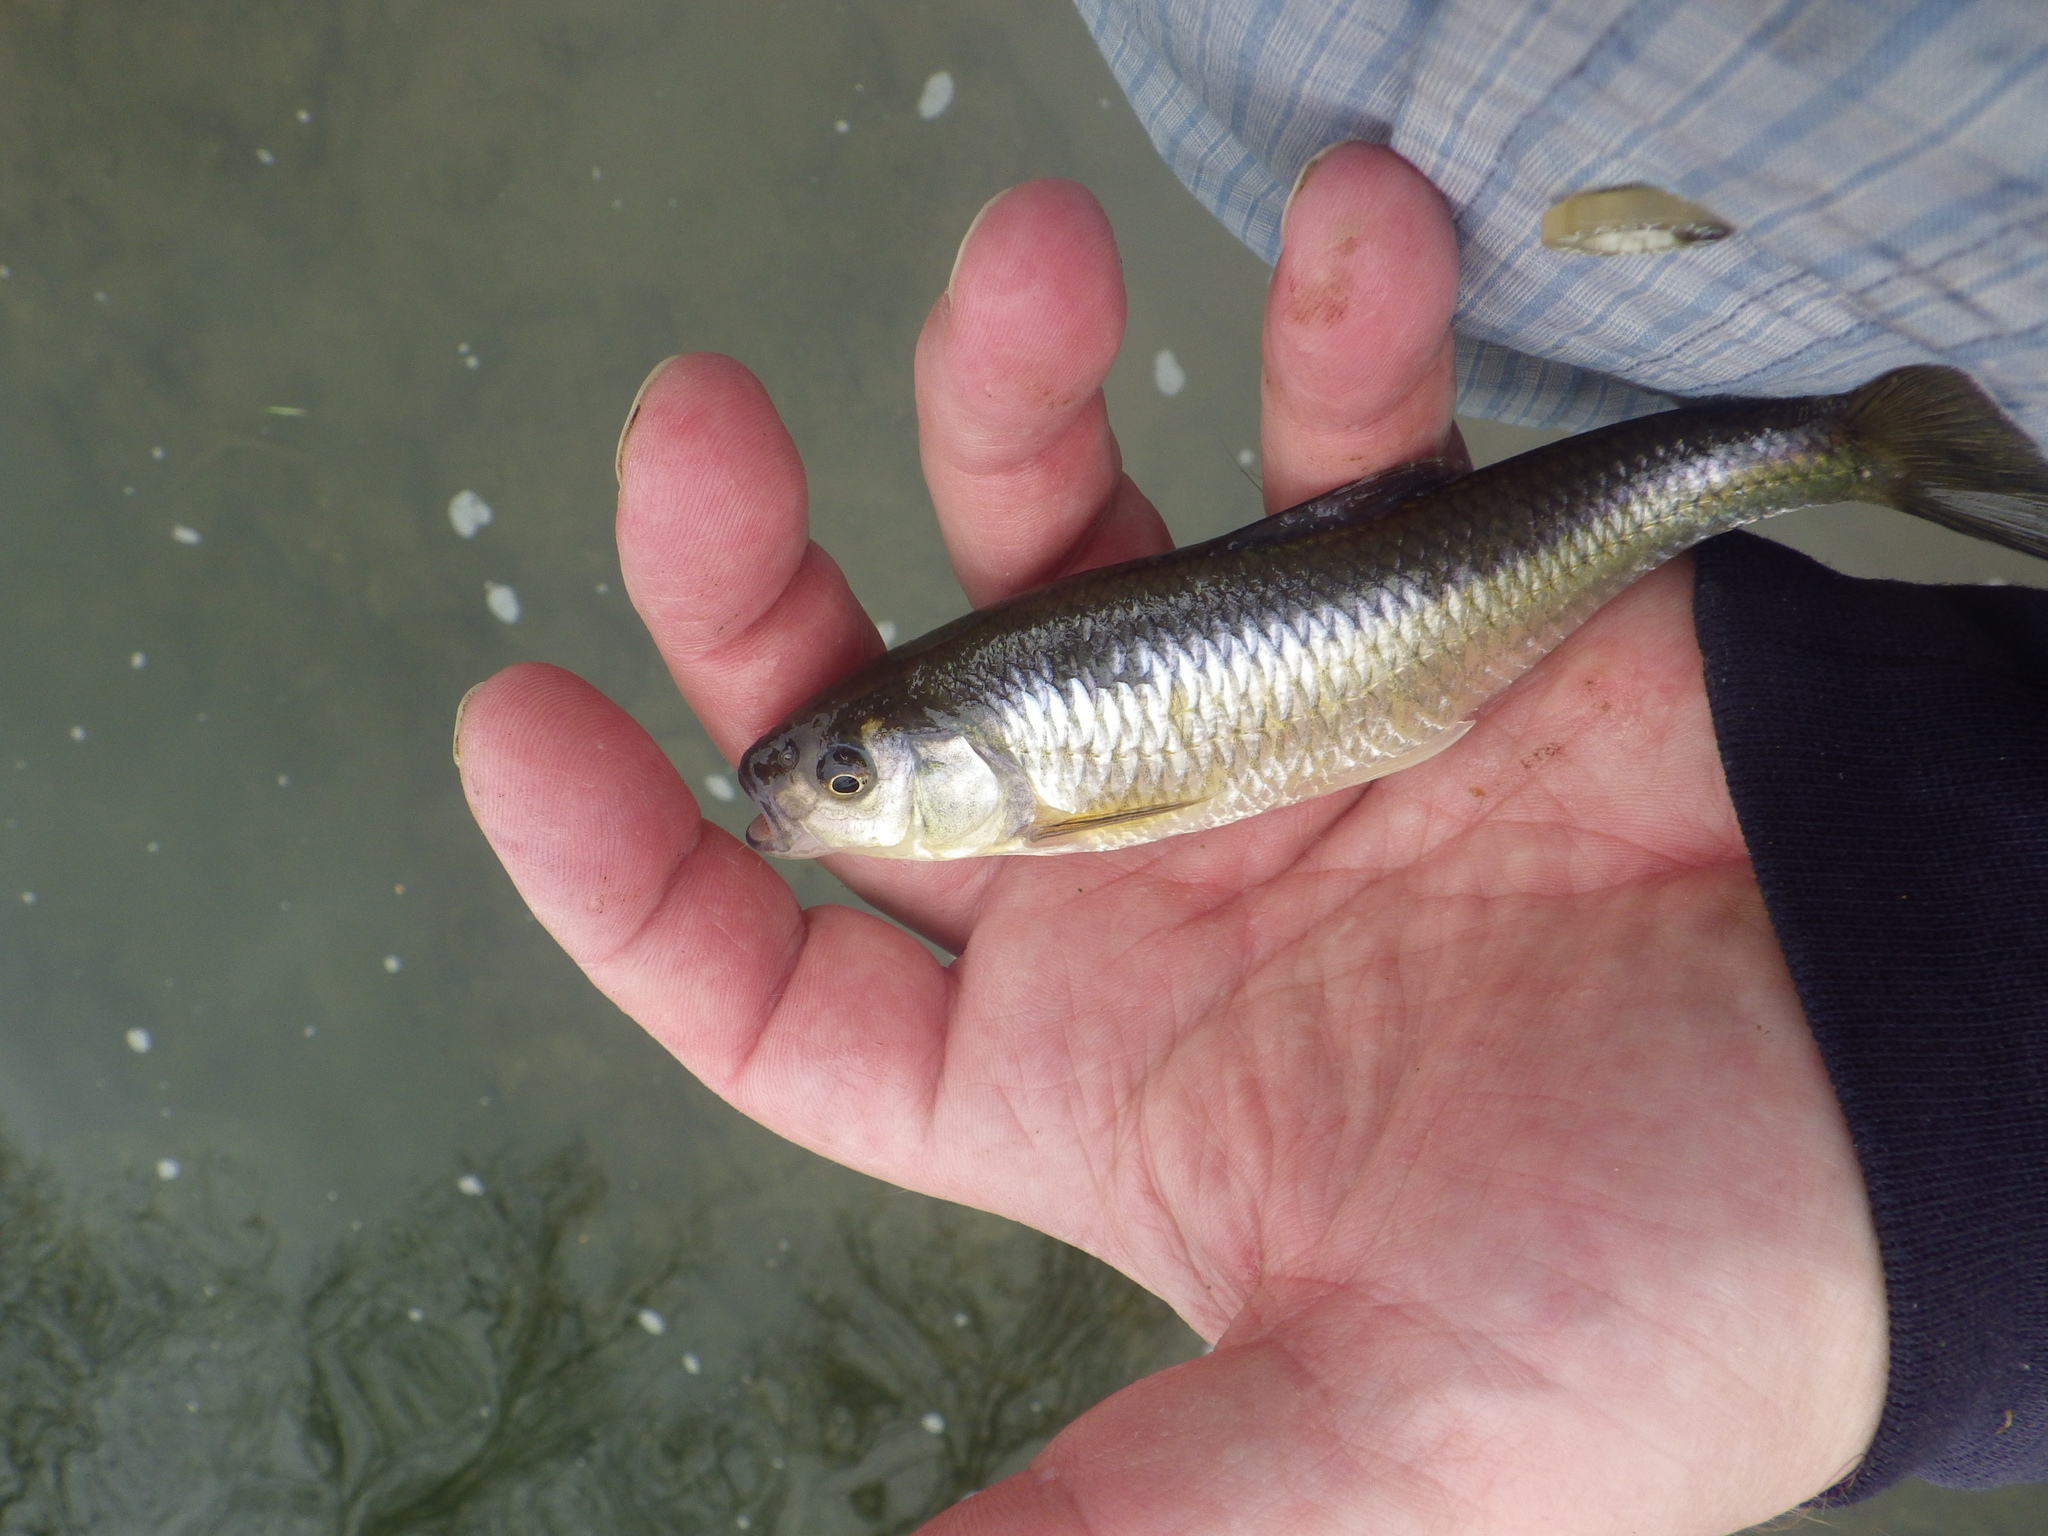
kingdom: Animalia
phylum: Chordata
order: Cypriniformes
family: Cyprinidae
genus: Luxilus
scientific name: Luxilus cornutus
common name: Common shiner
